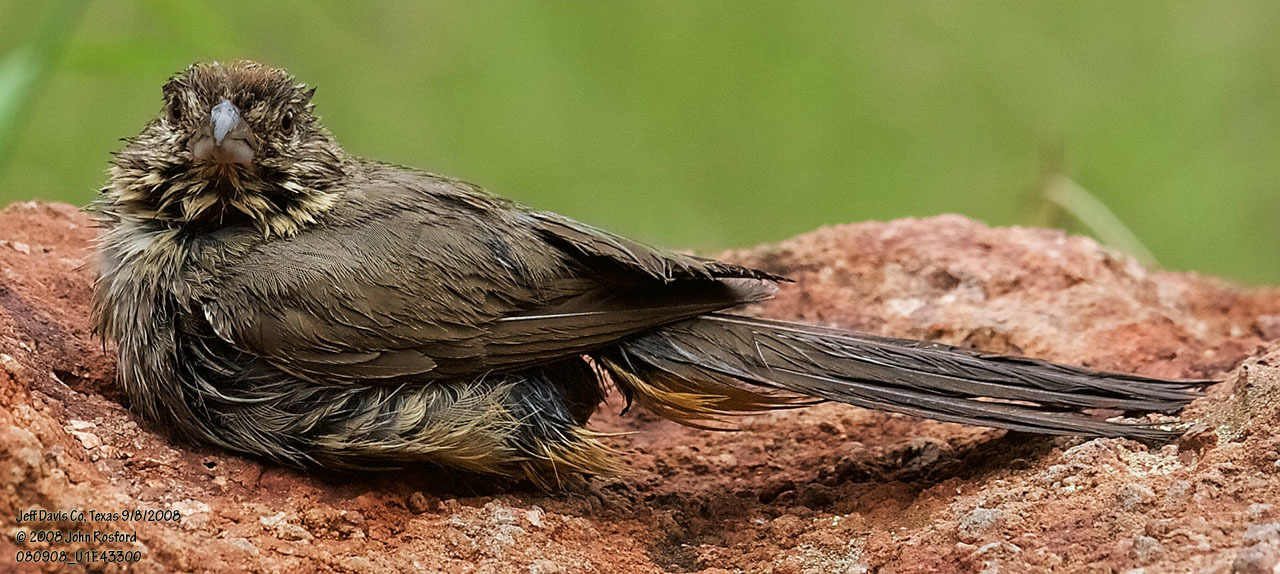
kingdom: Animalia
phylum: Chordata
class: Aves
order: Passeriformes
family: Passerellidae
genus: Melozone
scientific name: Melozone fusca
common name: Canyon towhee
